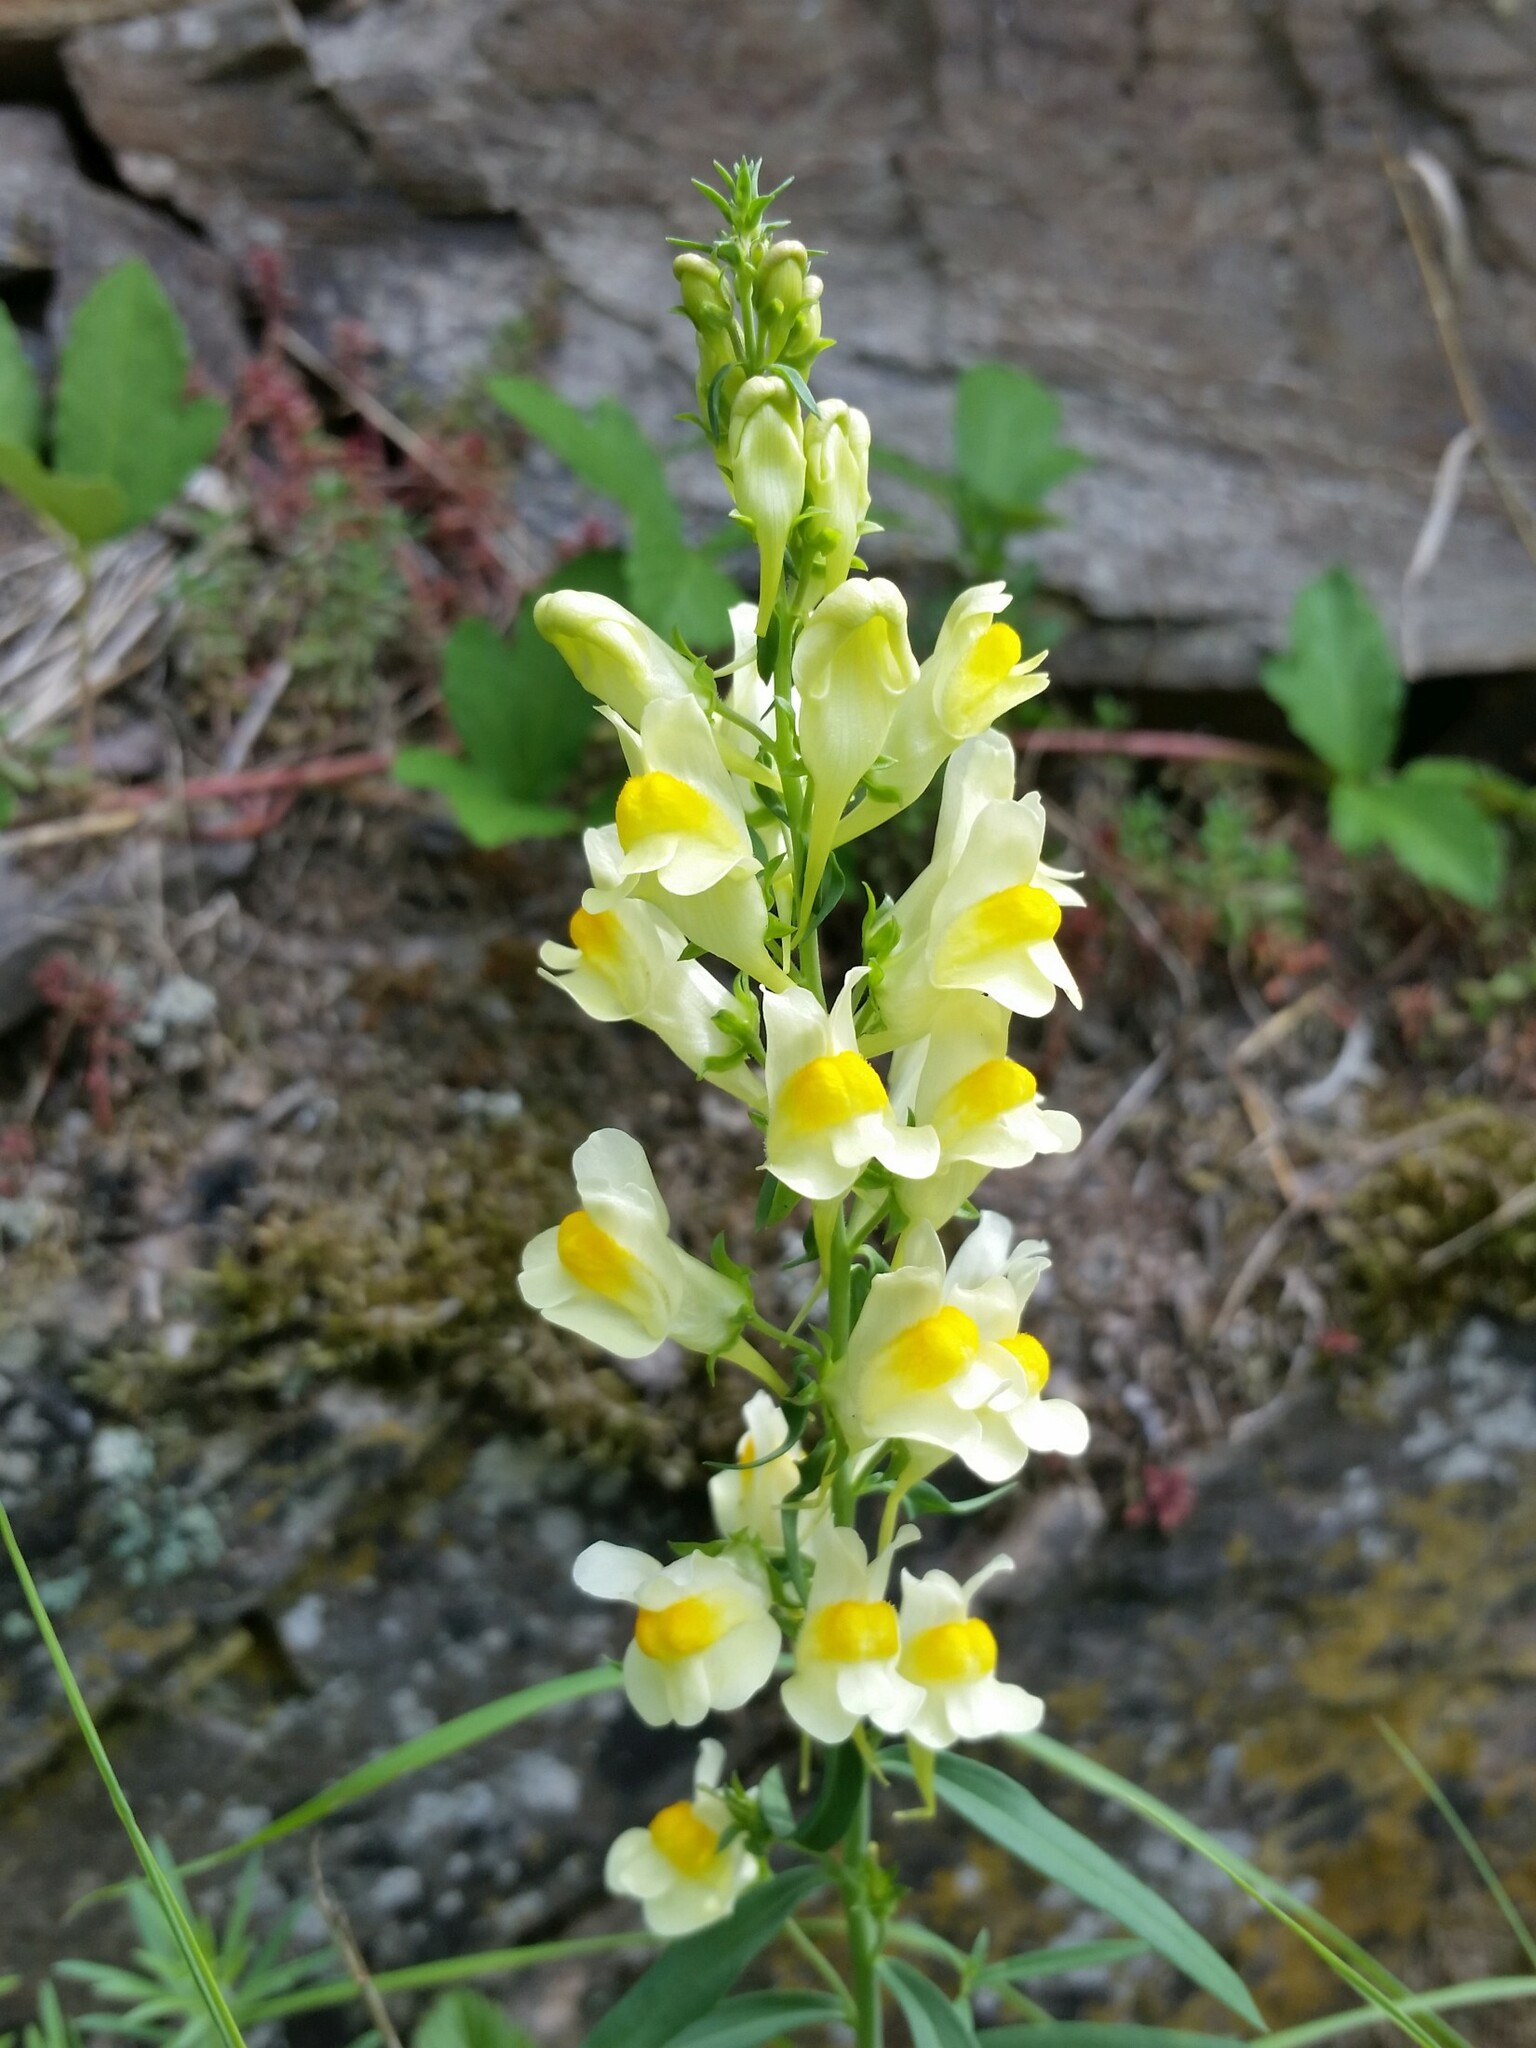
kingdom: Plantae
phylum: Tracheophyta
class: Magnoliopsida
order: Lamiales
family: Plantaginaceae
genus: Linaria
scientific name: Linaria vulgaris
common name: Butter and eggs
